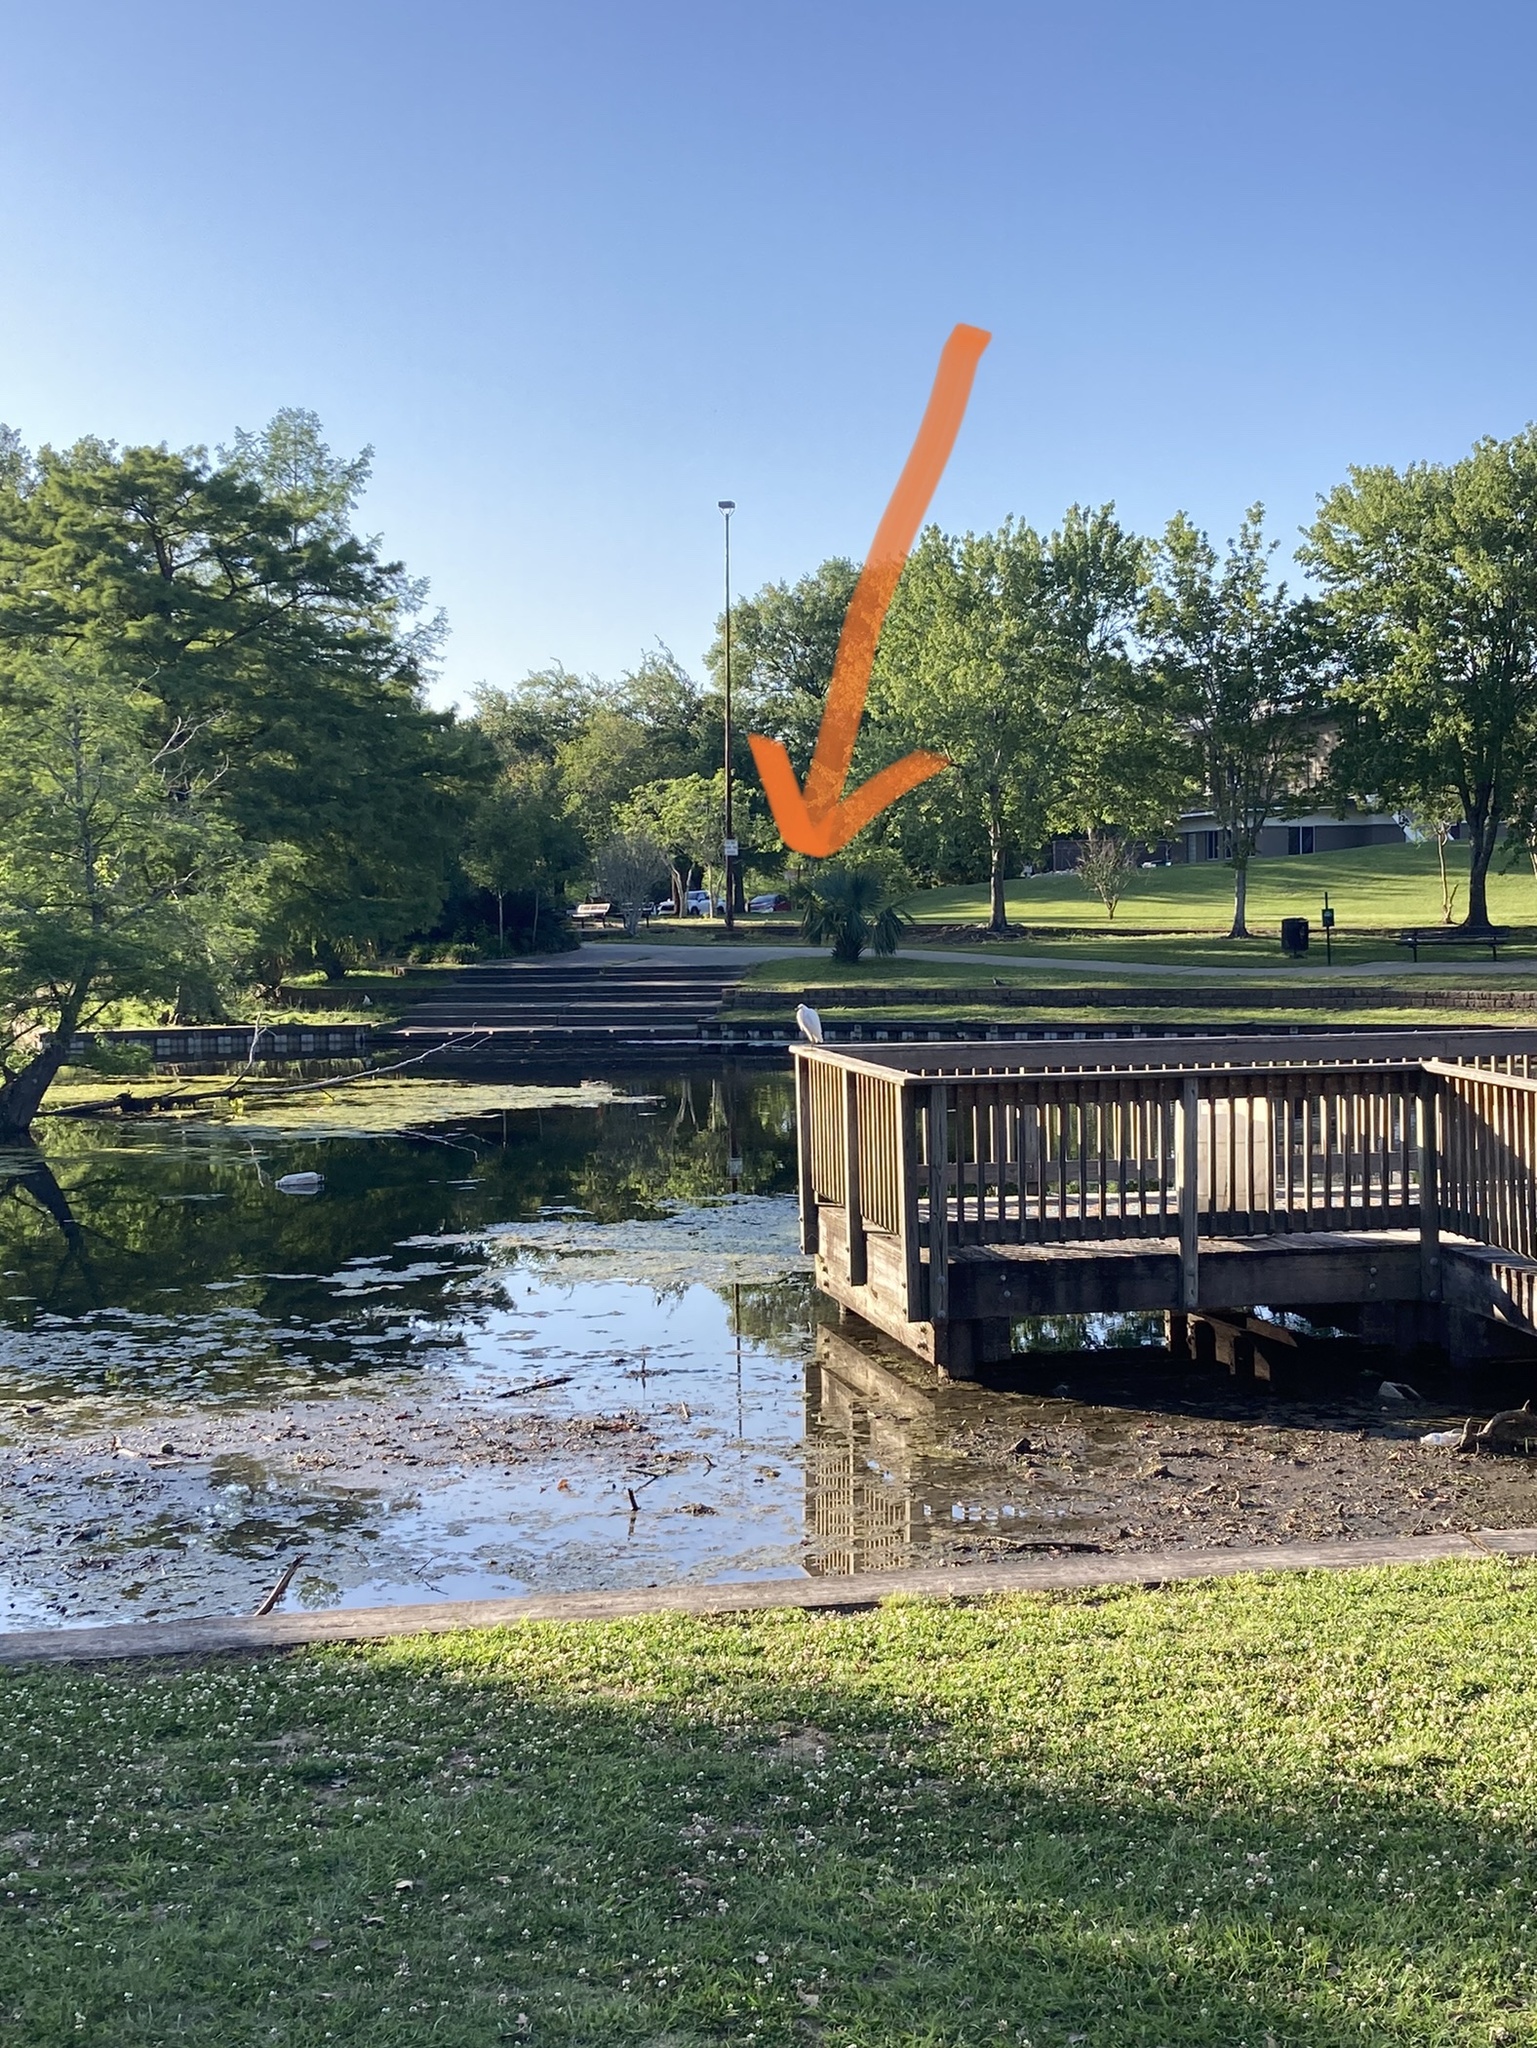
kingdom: Animalia
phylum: Chordata
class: Aves
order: Pelecaniformes
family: Ardeidae
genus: Egretta
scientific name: Egretta thula
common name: Snowy egret
